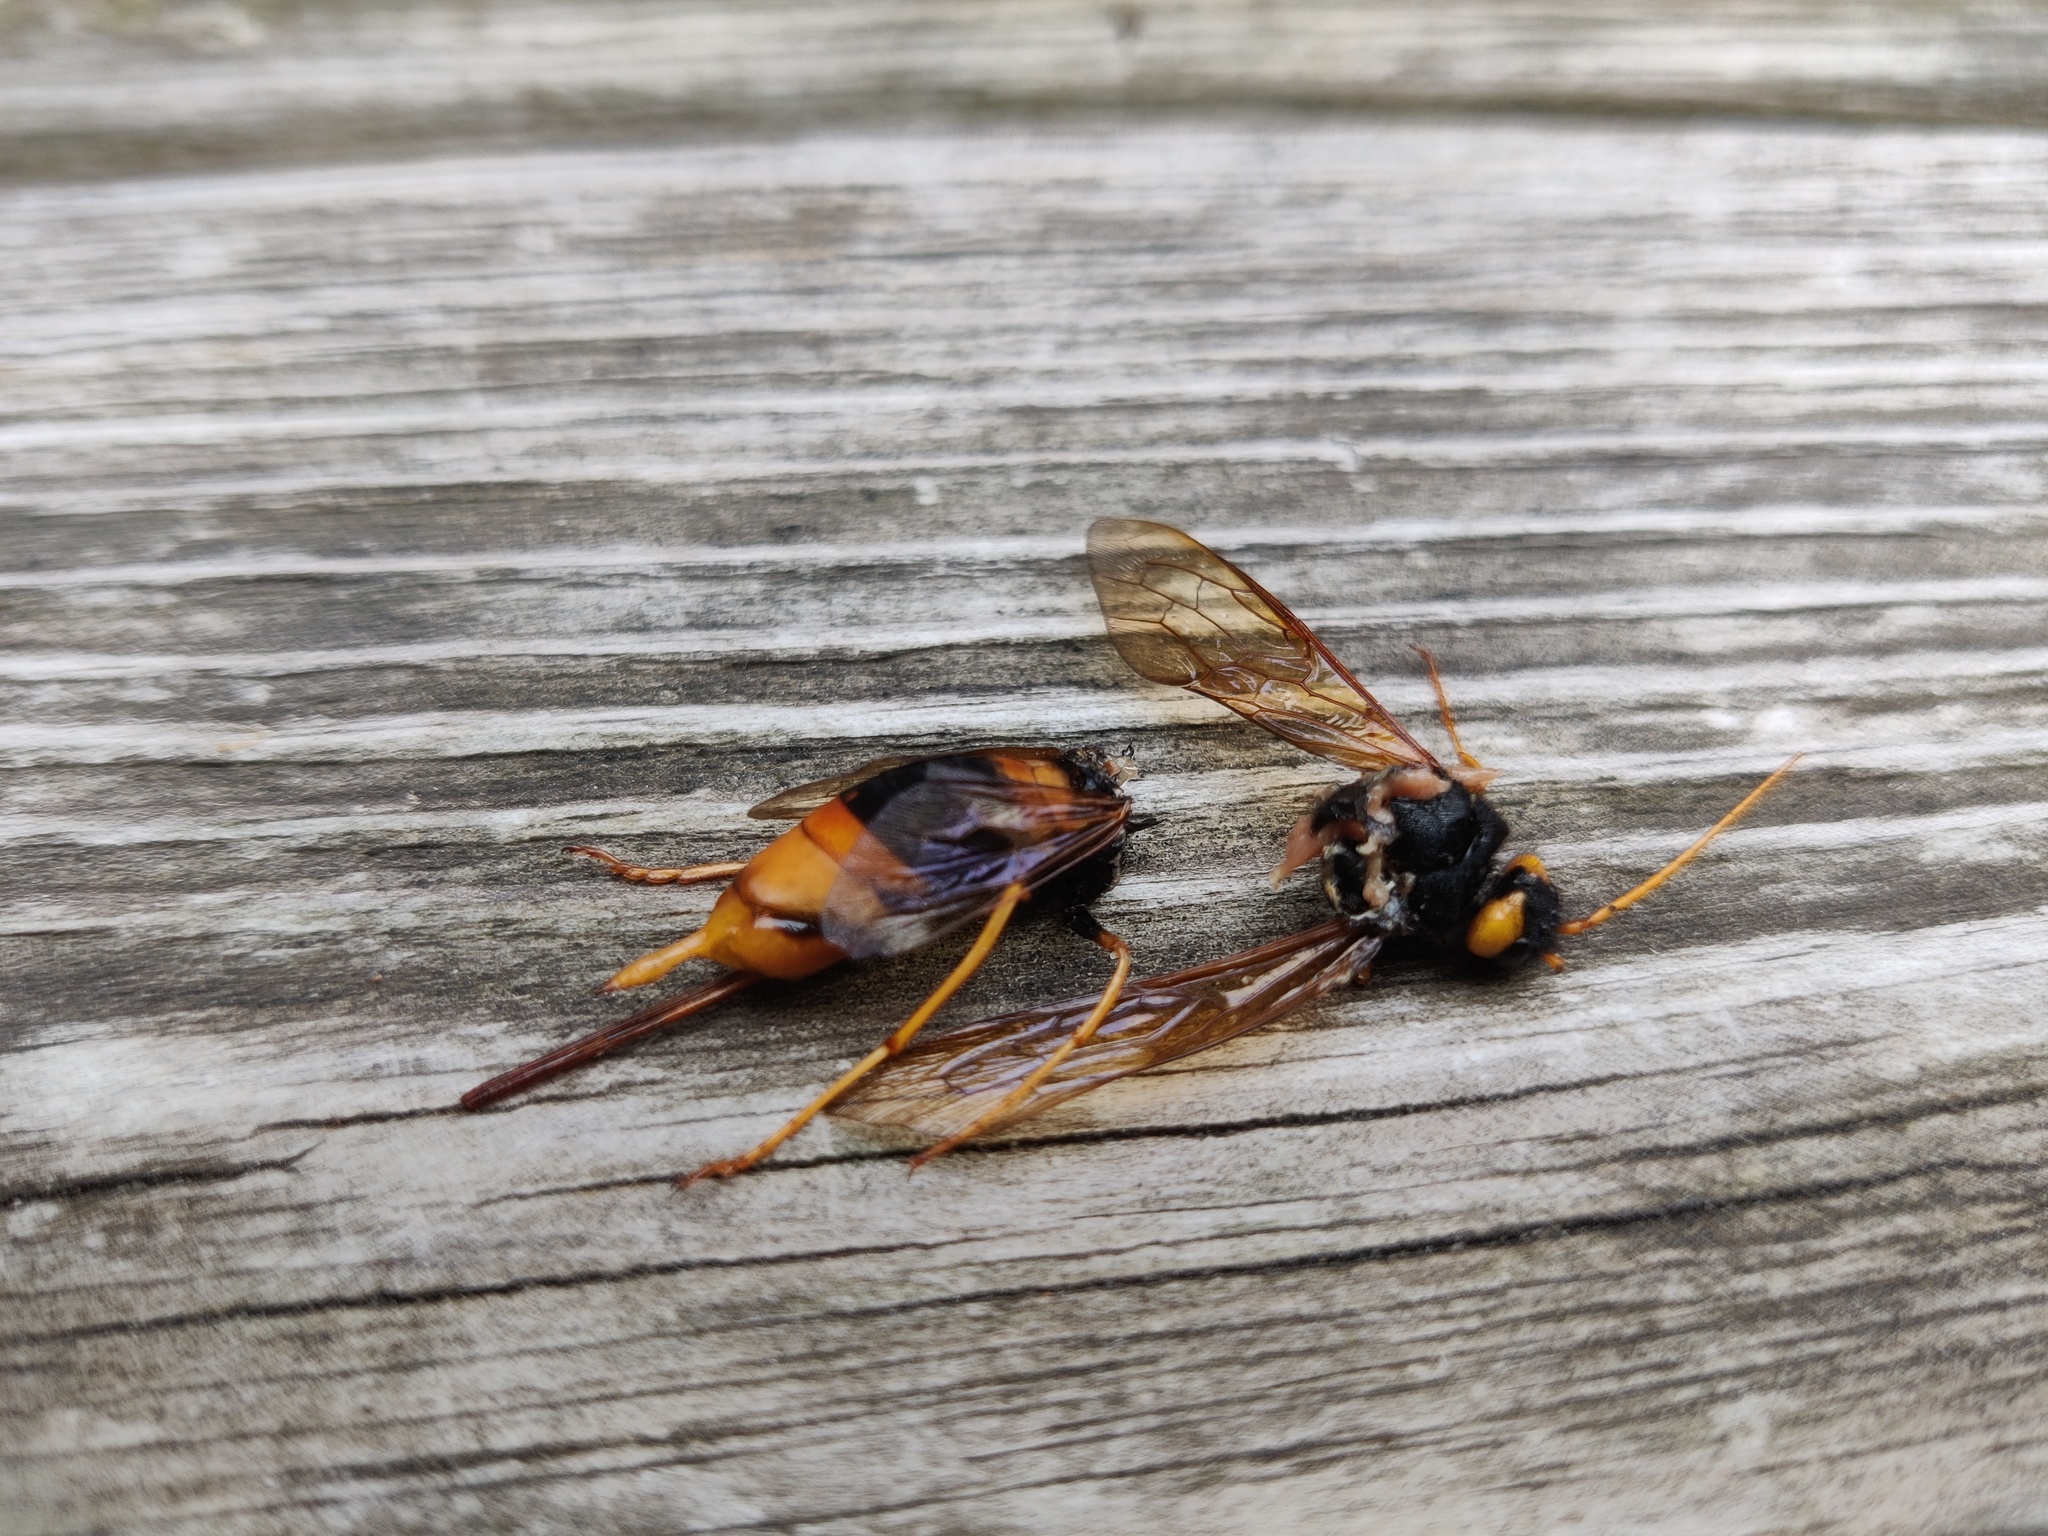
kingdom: Animalia
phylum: Arthropoda
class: Insecta
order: Hymenoptera
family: Siricidae
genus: Urocerus
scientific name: Urocerus gigas
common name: Giant woodwasp
